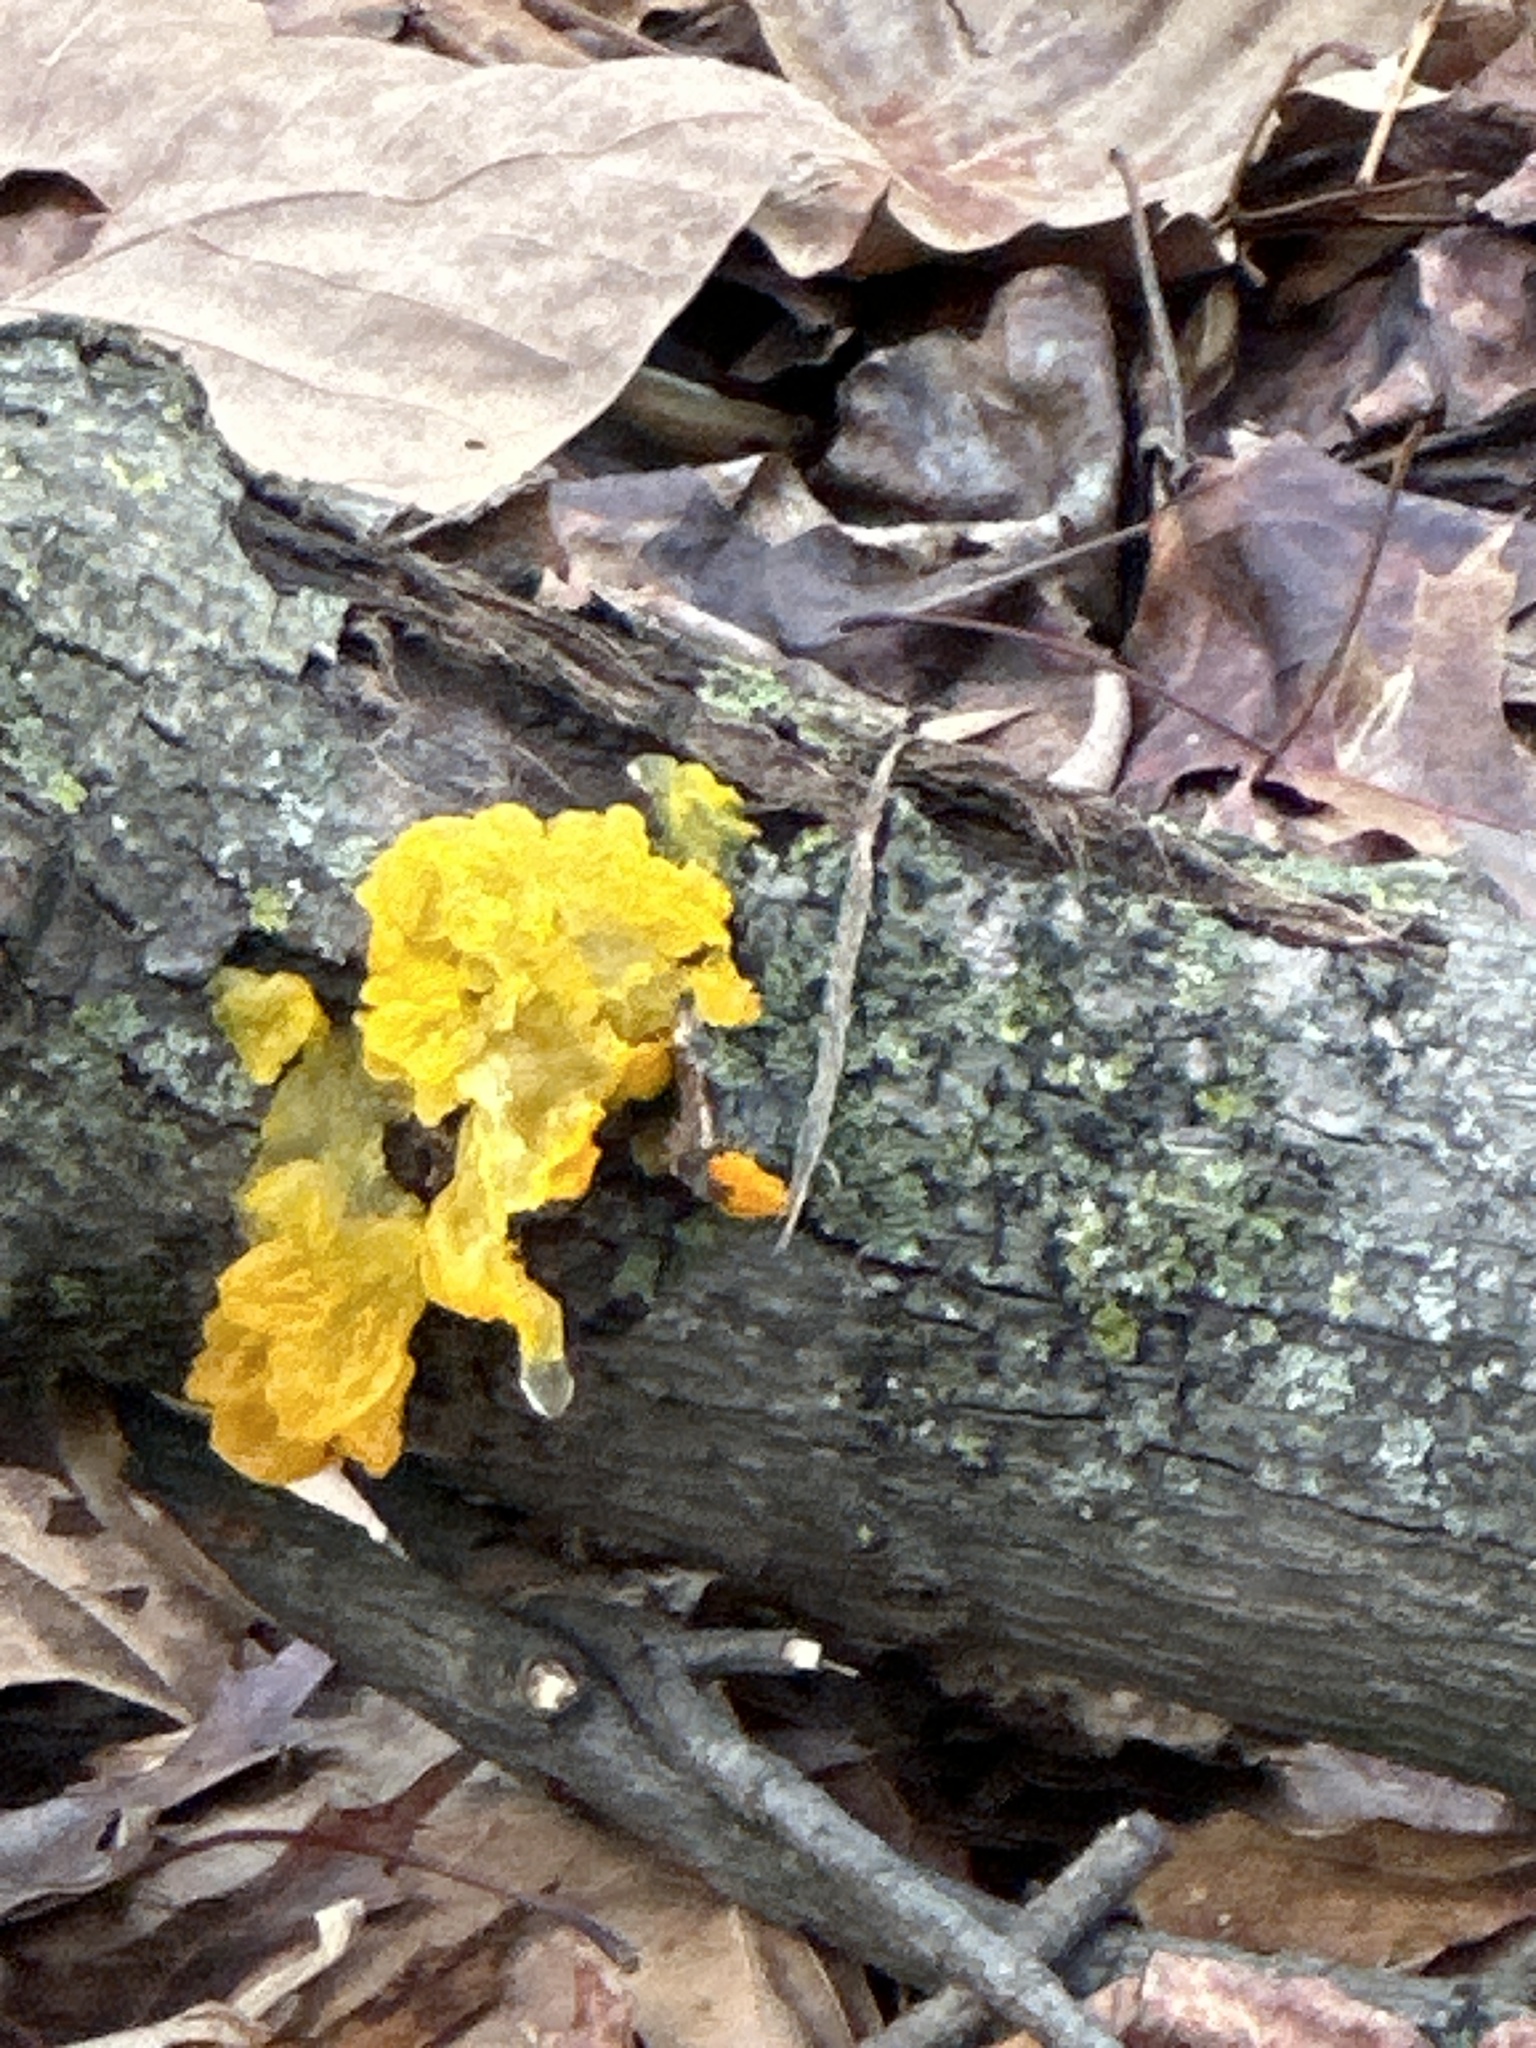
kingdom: Fungi
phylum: Basidiomycota
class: Tremellomycetes
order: Tremellales
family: Tremellaceae
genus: Tremella
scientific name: Tremella mesenterica
